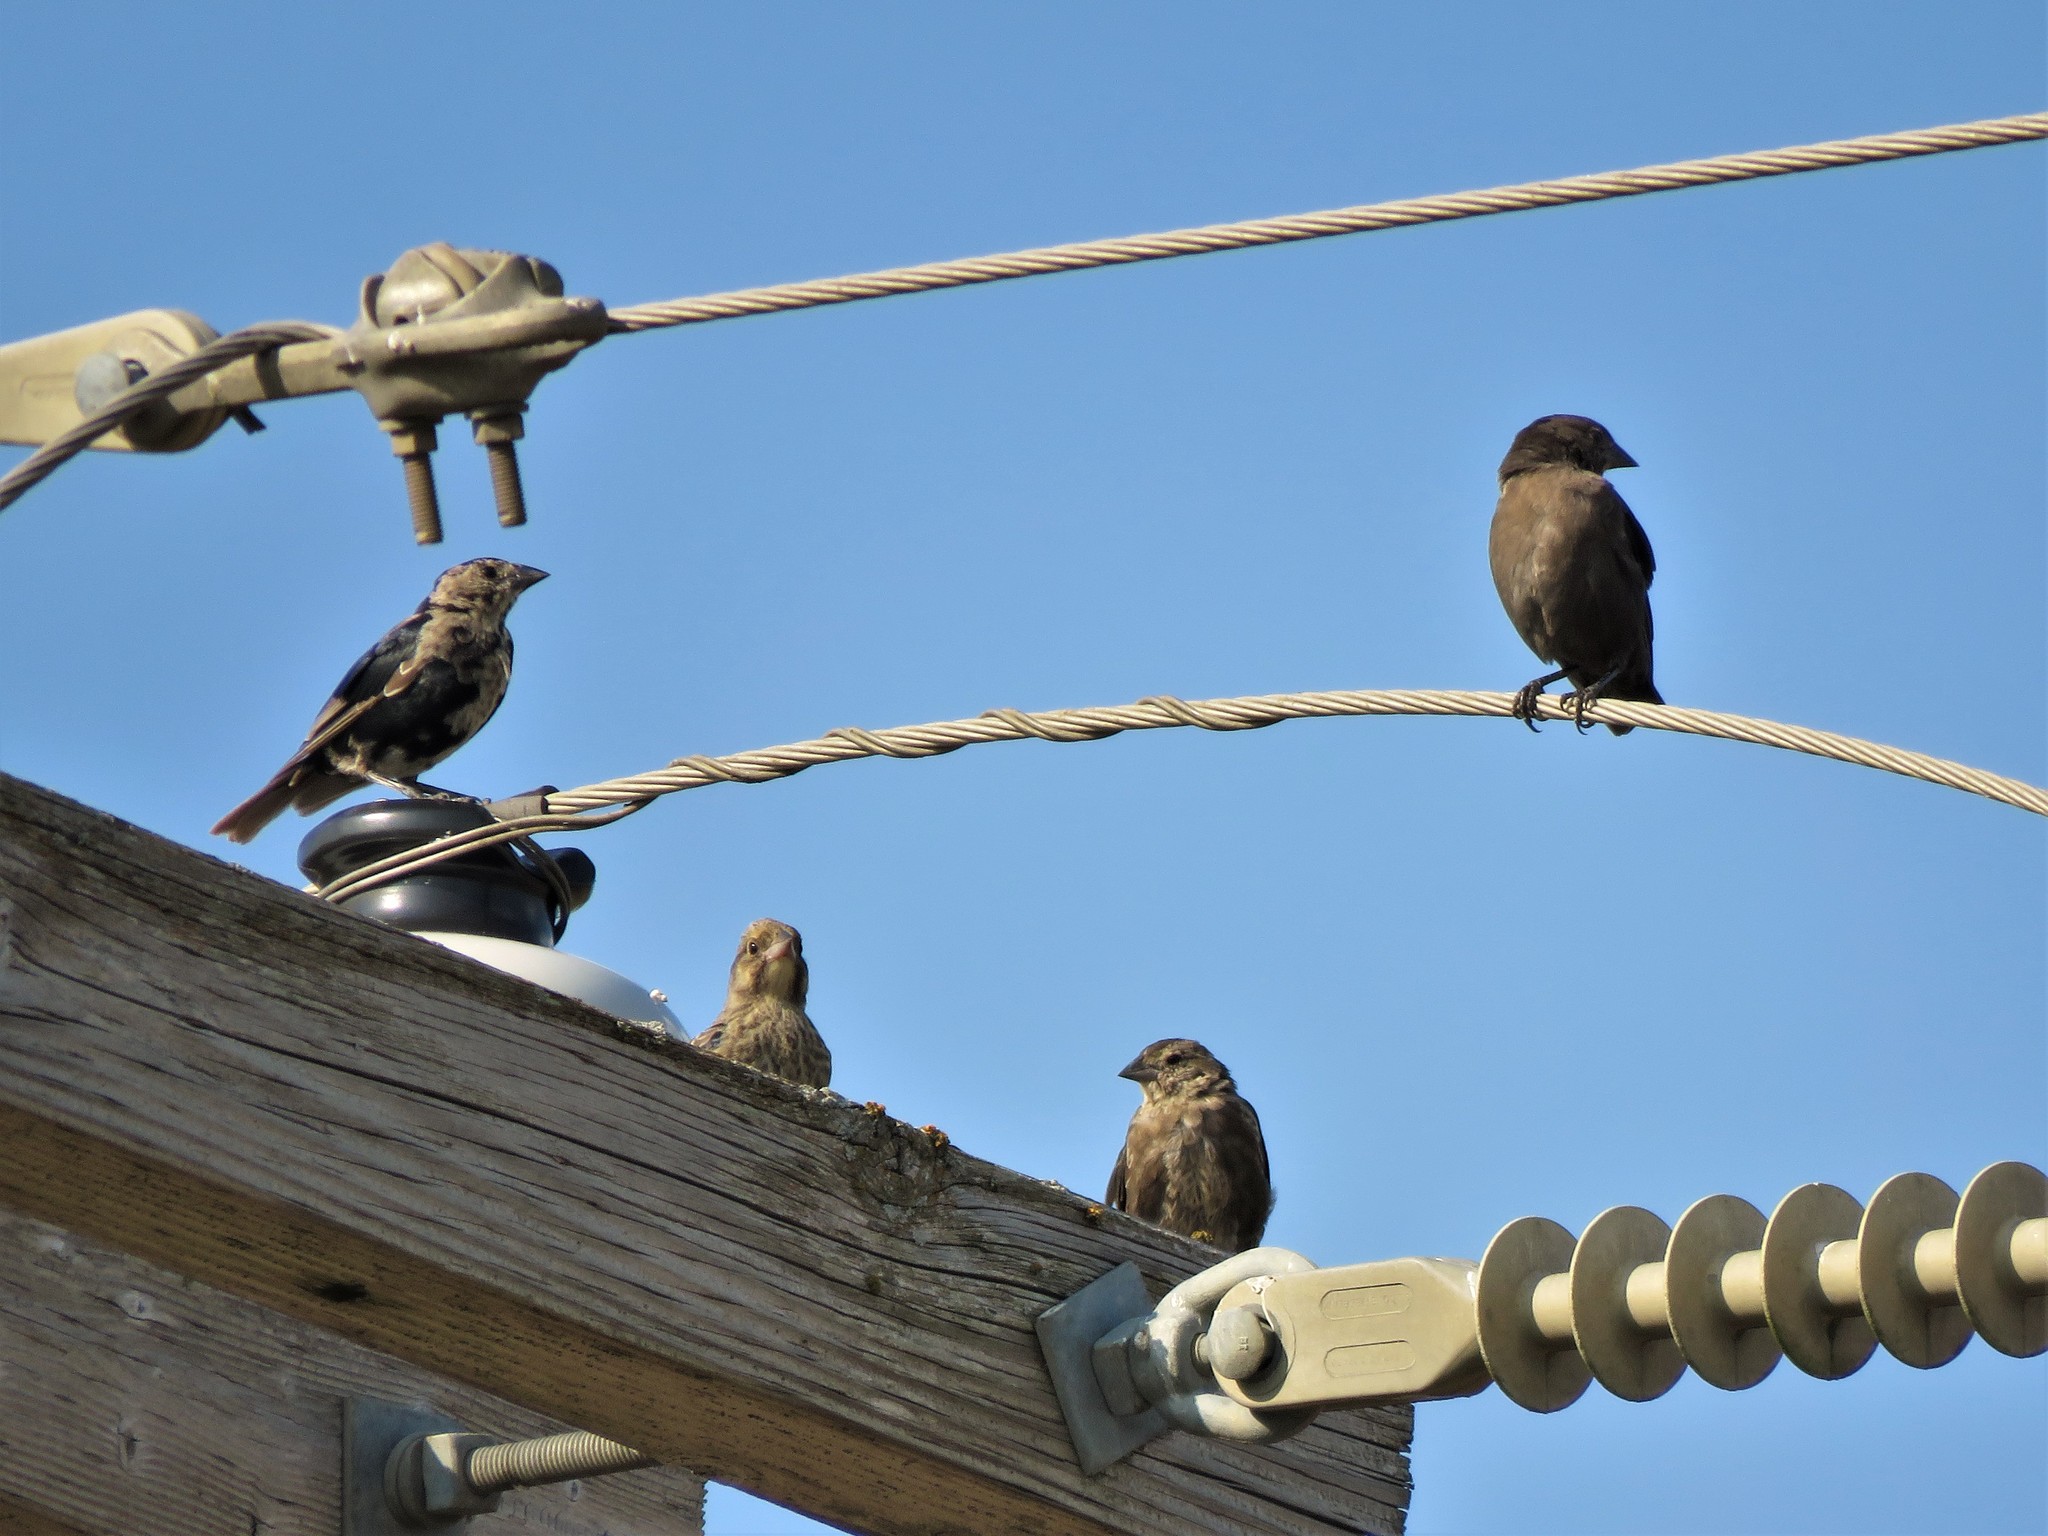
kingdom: Animalia
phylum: Chordata
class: Aves
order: Passeriformes
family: Icteridae
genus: Molothrus
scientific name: Molothrus ater
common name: Brown-headed cowbird
